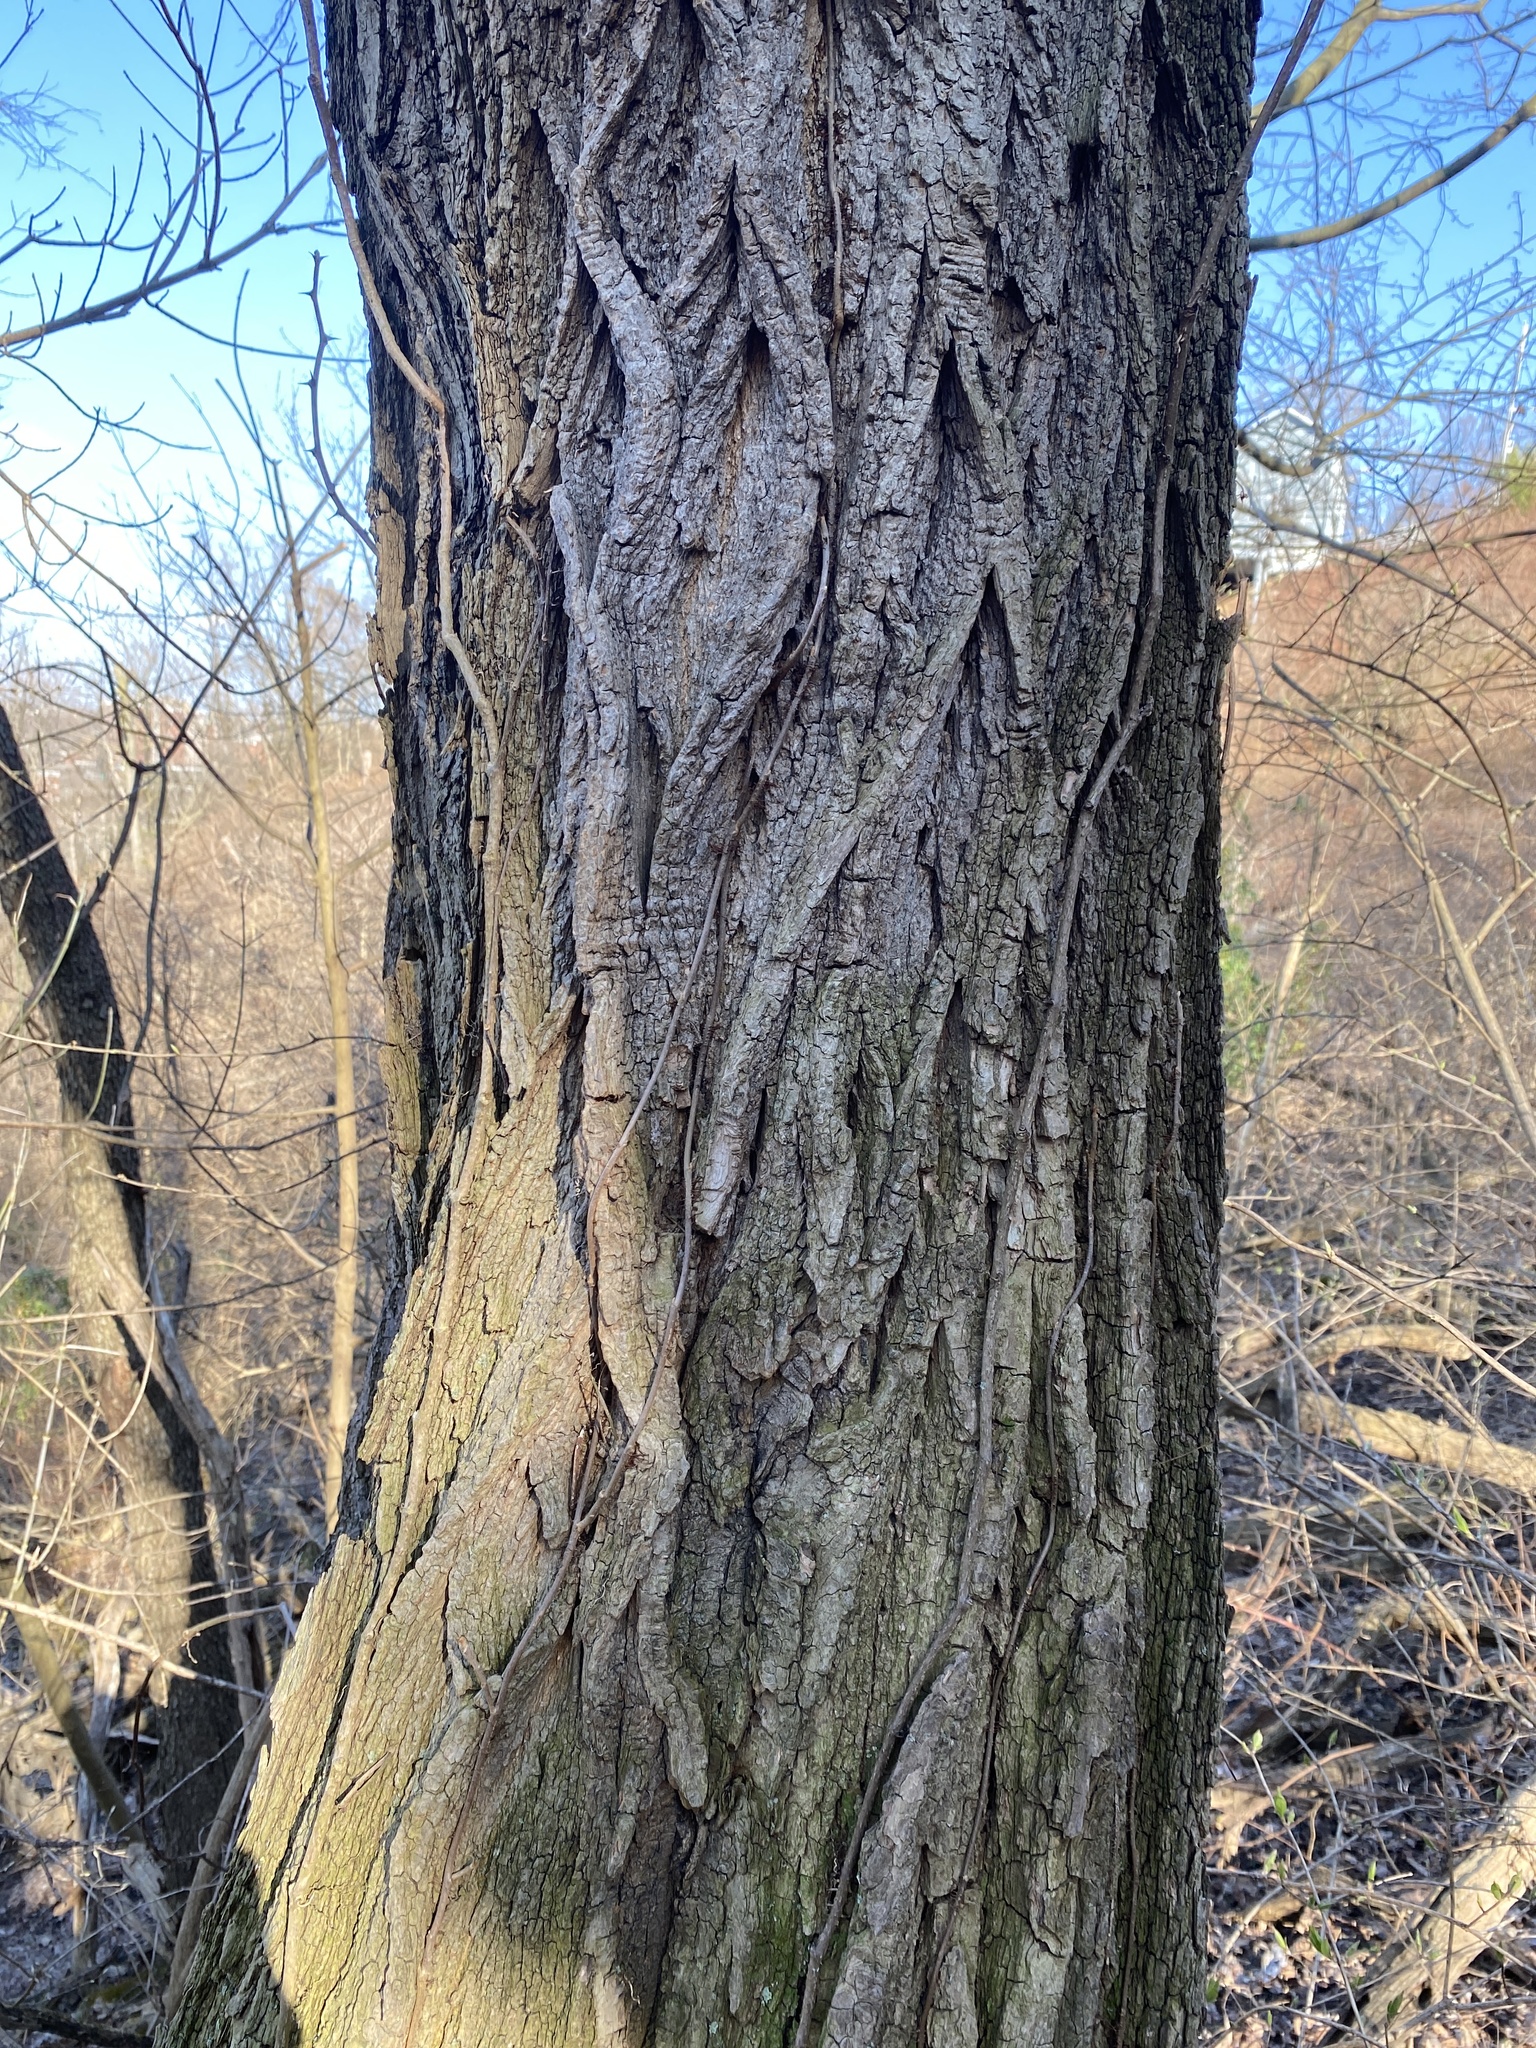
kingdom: Plantae
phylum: Tracheophyta
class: Magnoliopsida
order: Fabales
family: Fabaceae
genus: Robinia
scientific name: Robinia pseudoacacia
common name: Black locust
